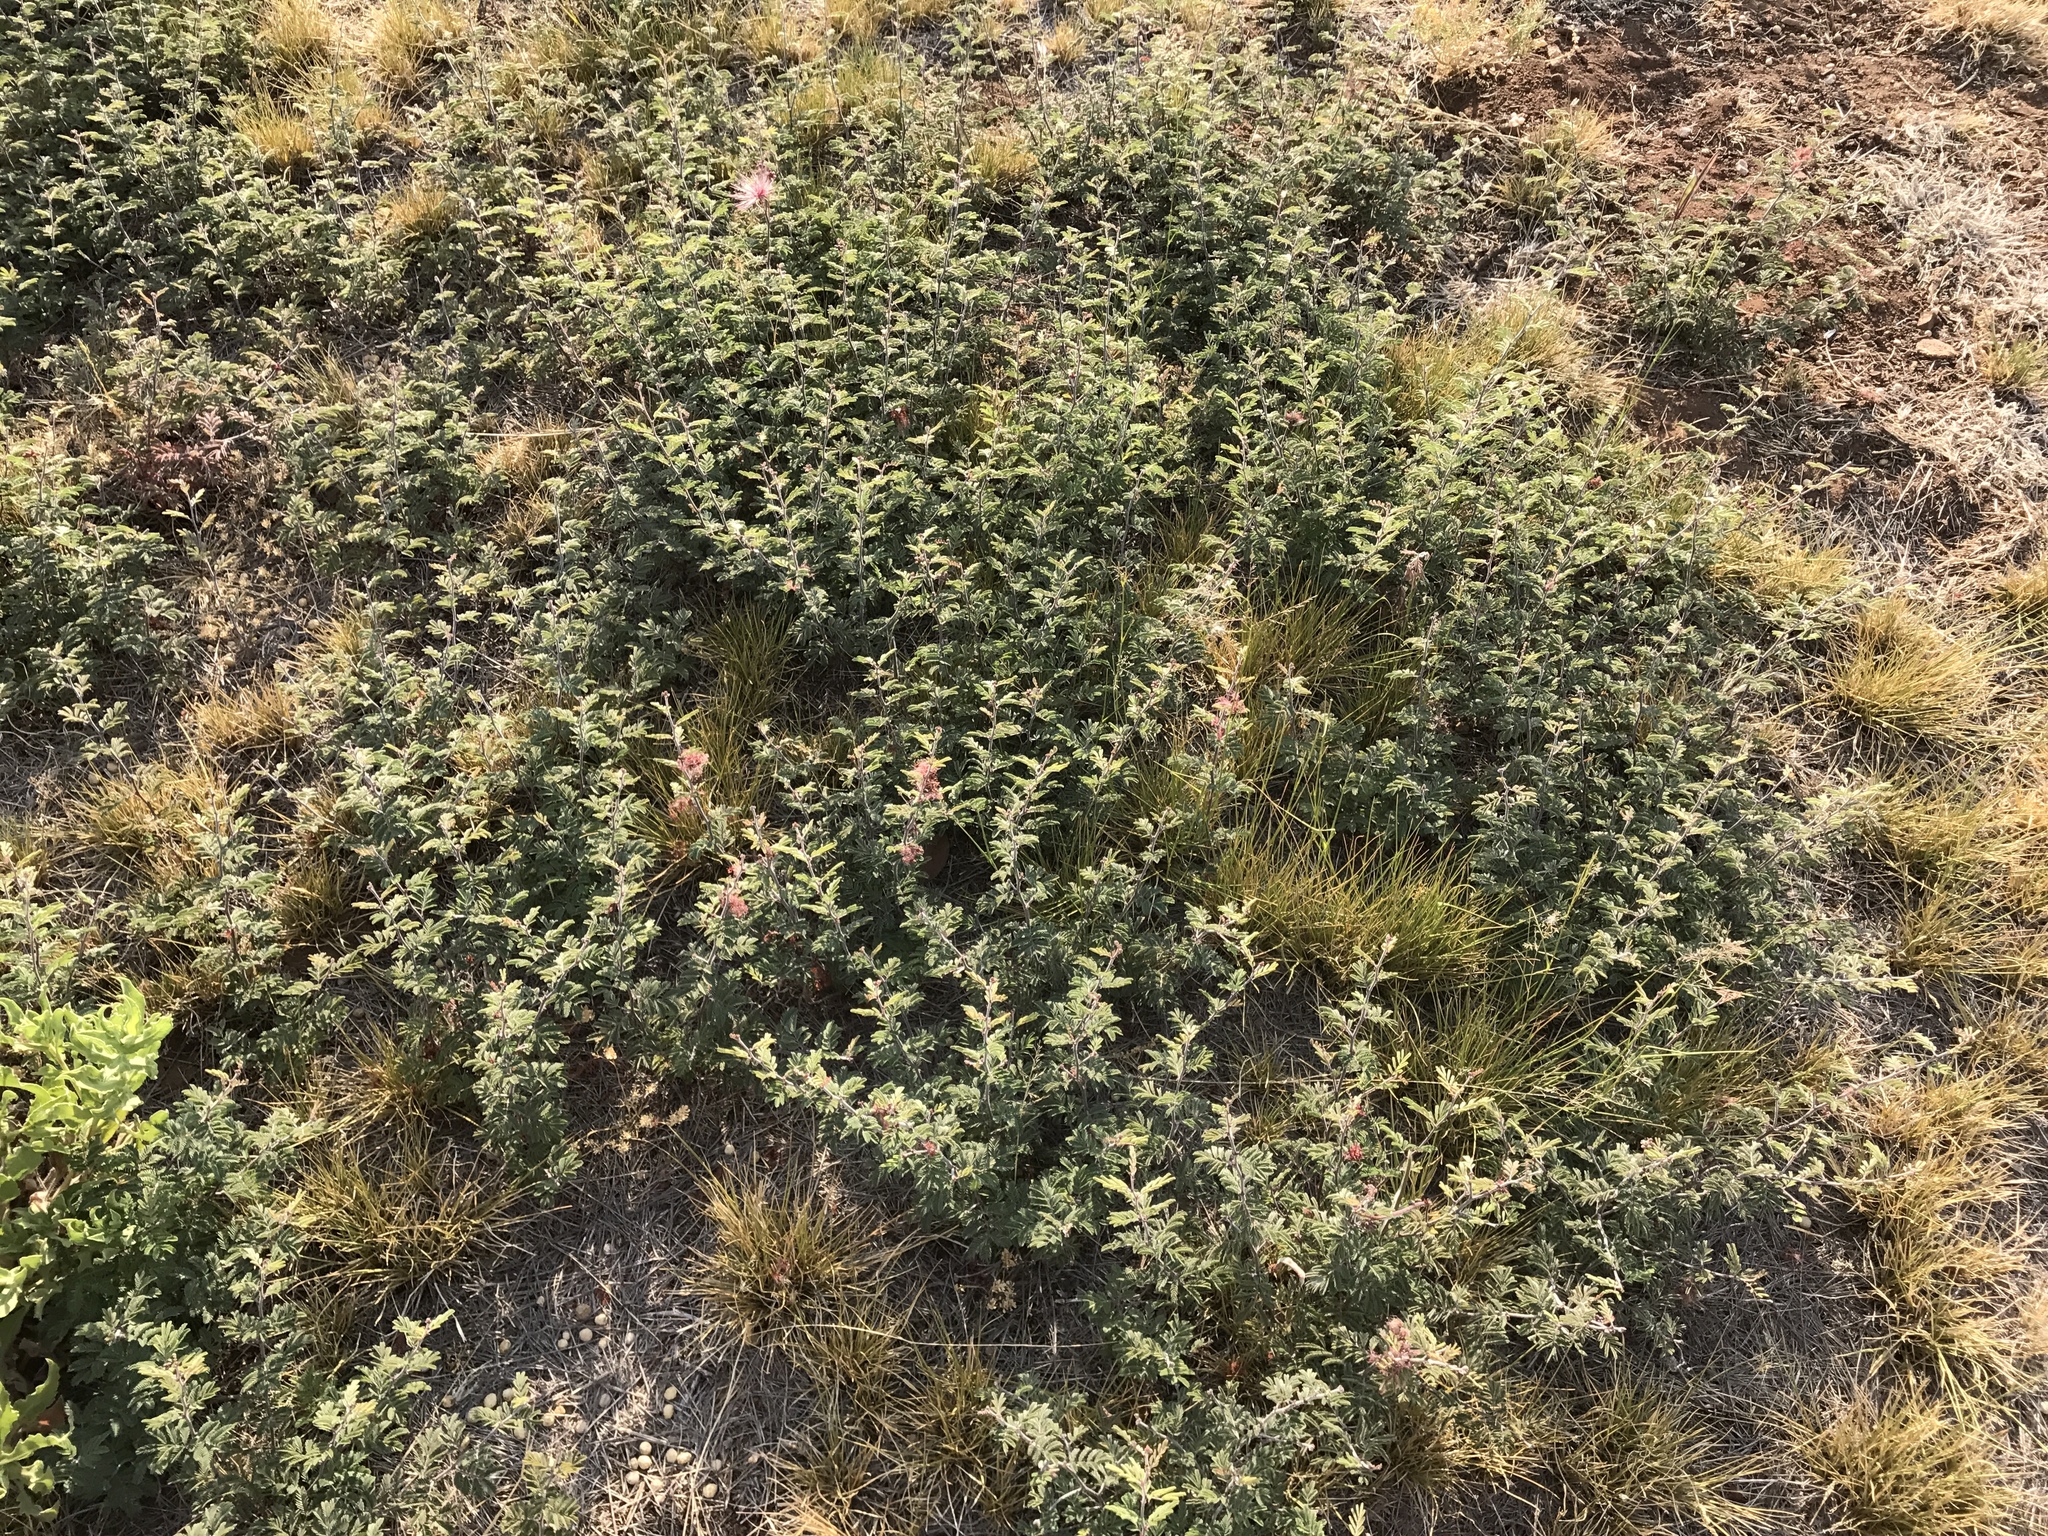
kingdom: Plantae
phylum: Tracheophyta
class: Magnoliopsida
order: Fabales
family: Fabaceae
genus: Calliandra
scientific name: Calliandra eriophylla
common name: Fairy-duster
